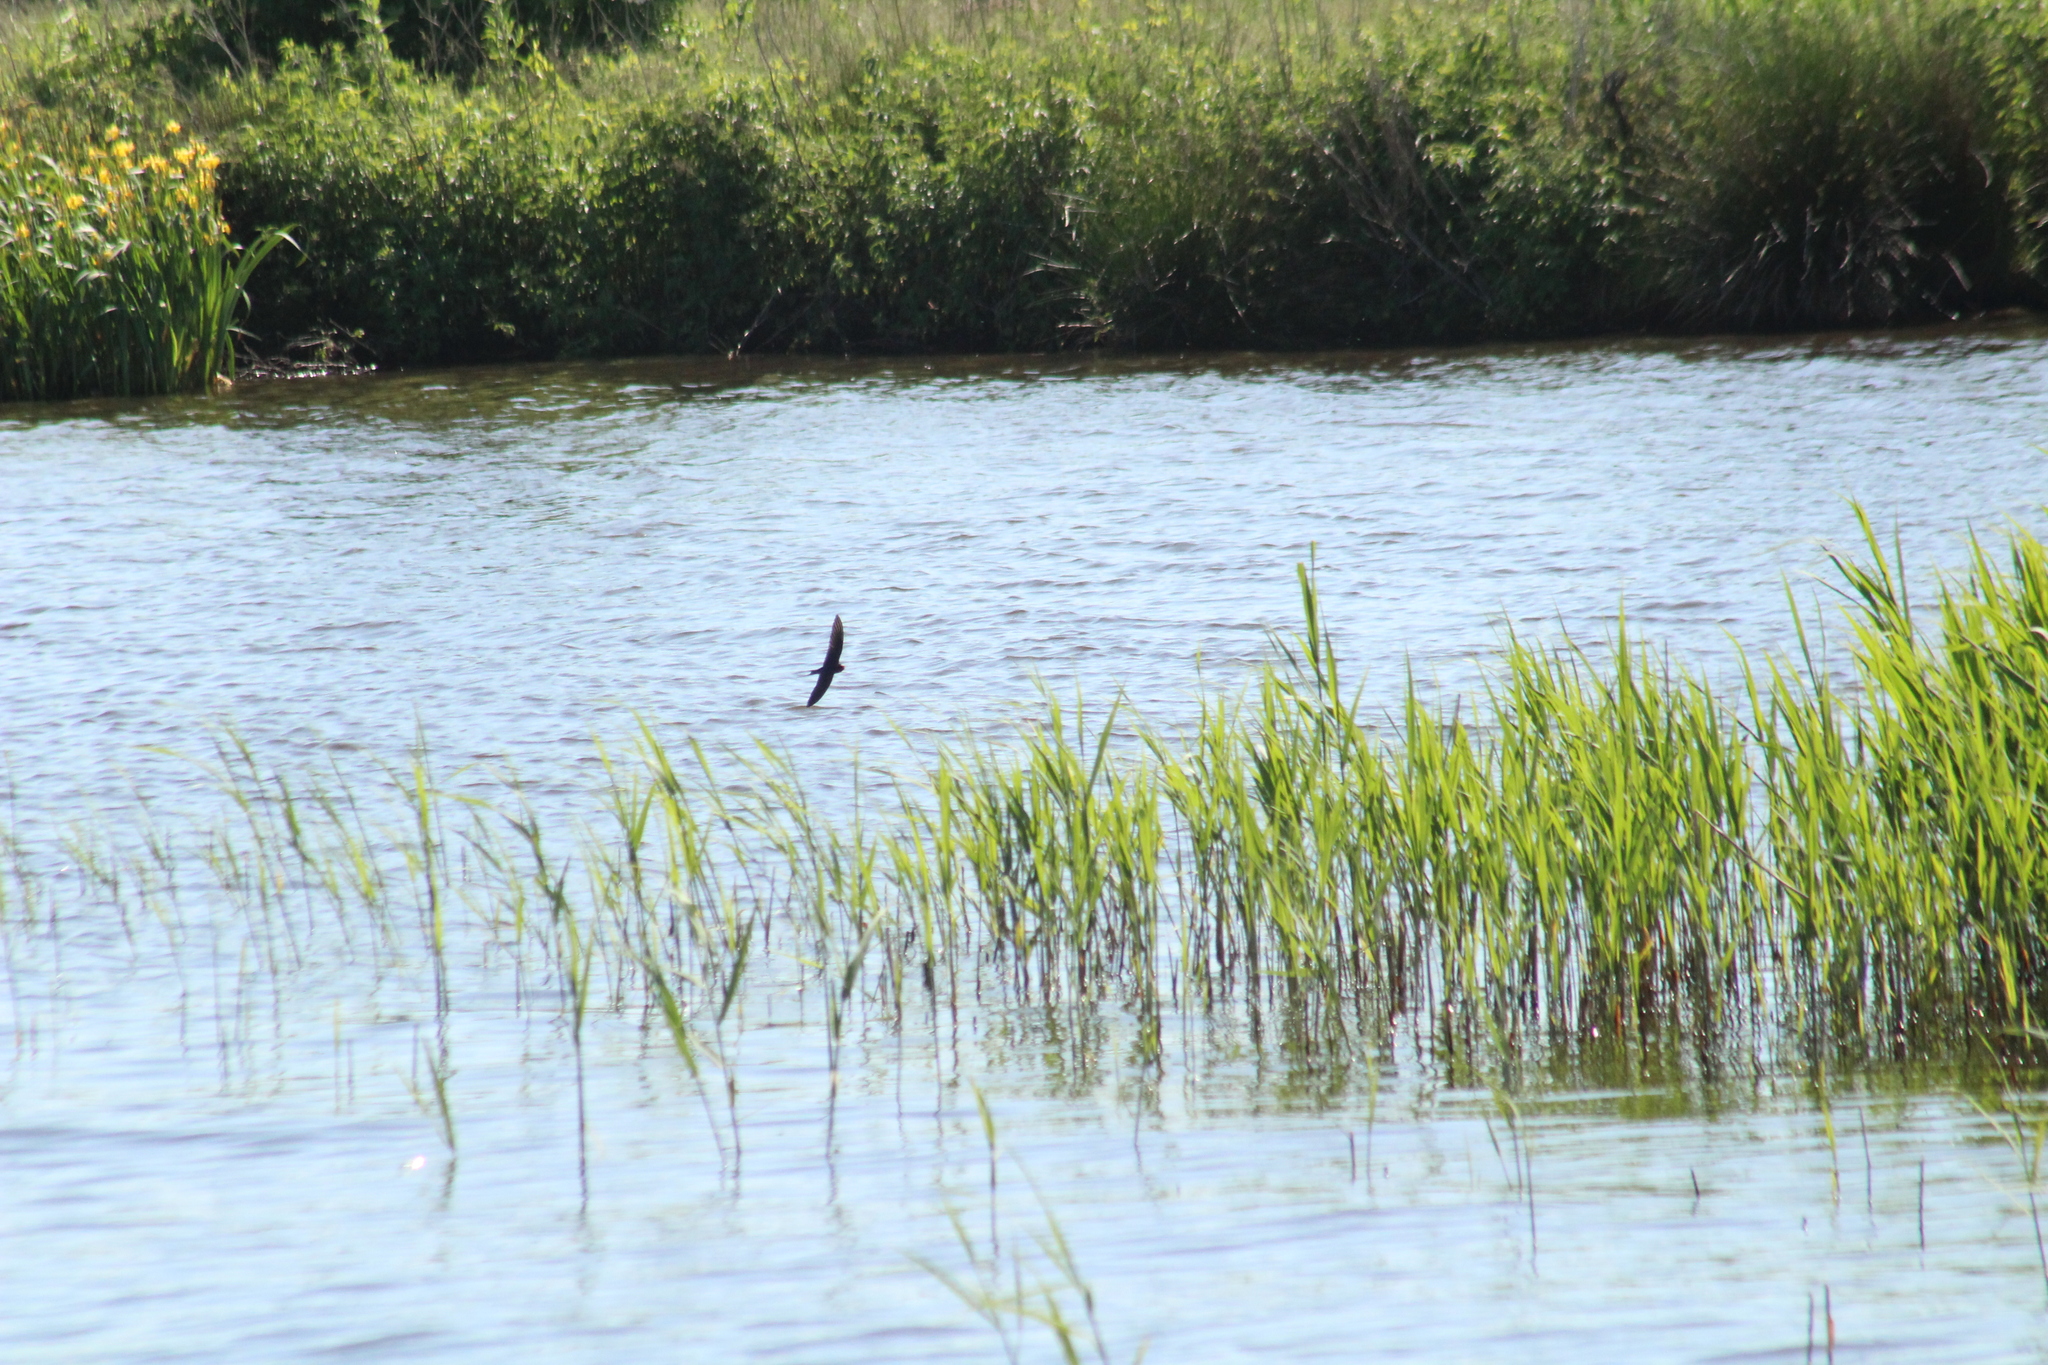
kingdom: Animalia
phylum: Chordata
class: Aves
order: Passeriformes
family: Hirundinidae
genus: Hirundo
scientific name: Hirundo rustica
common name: Barn swallow
